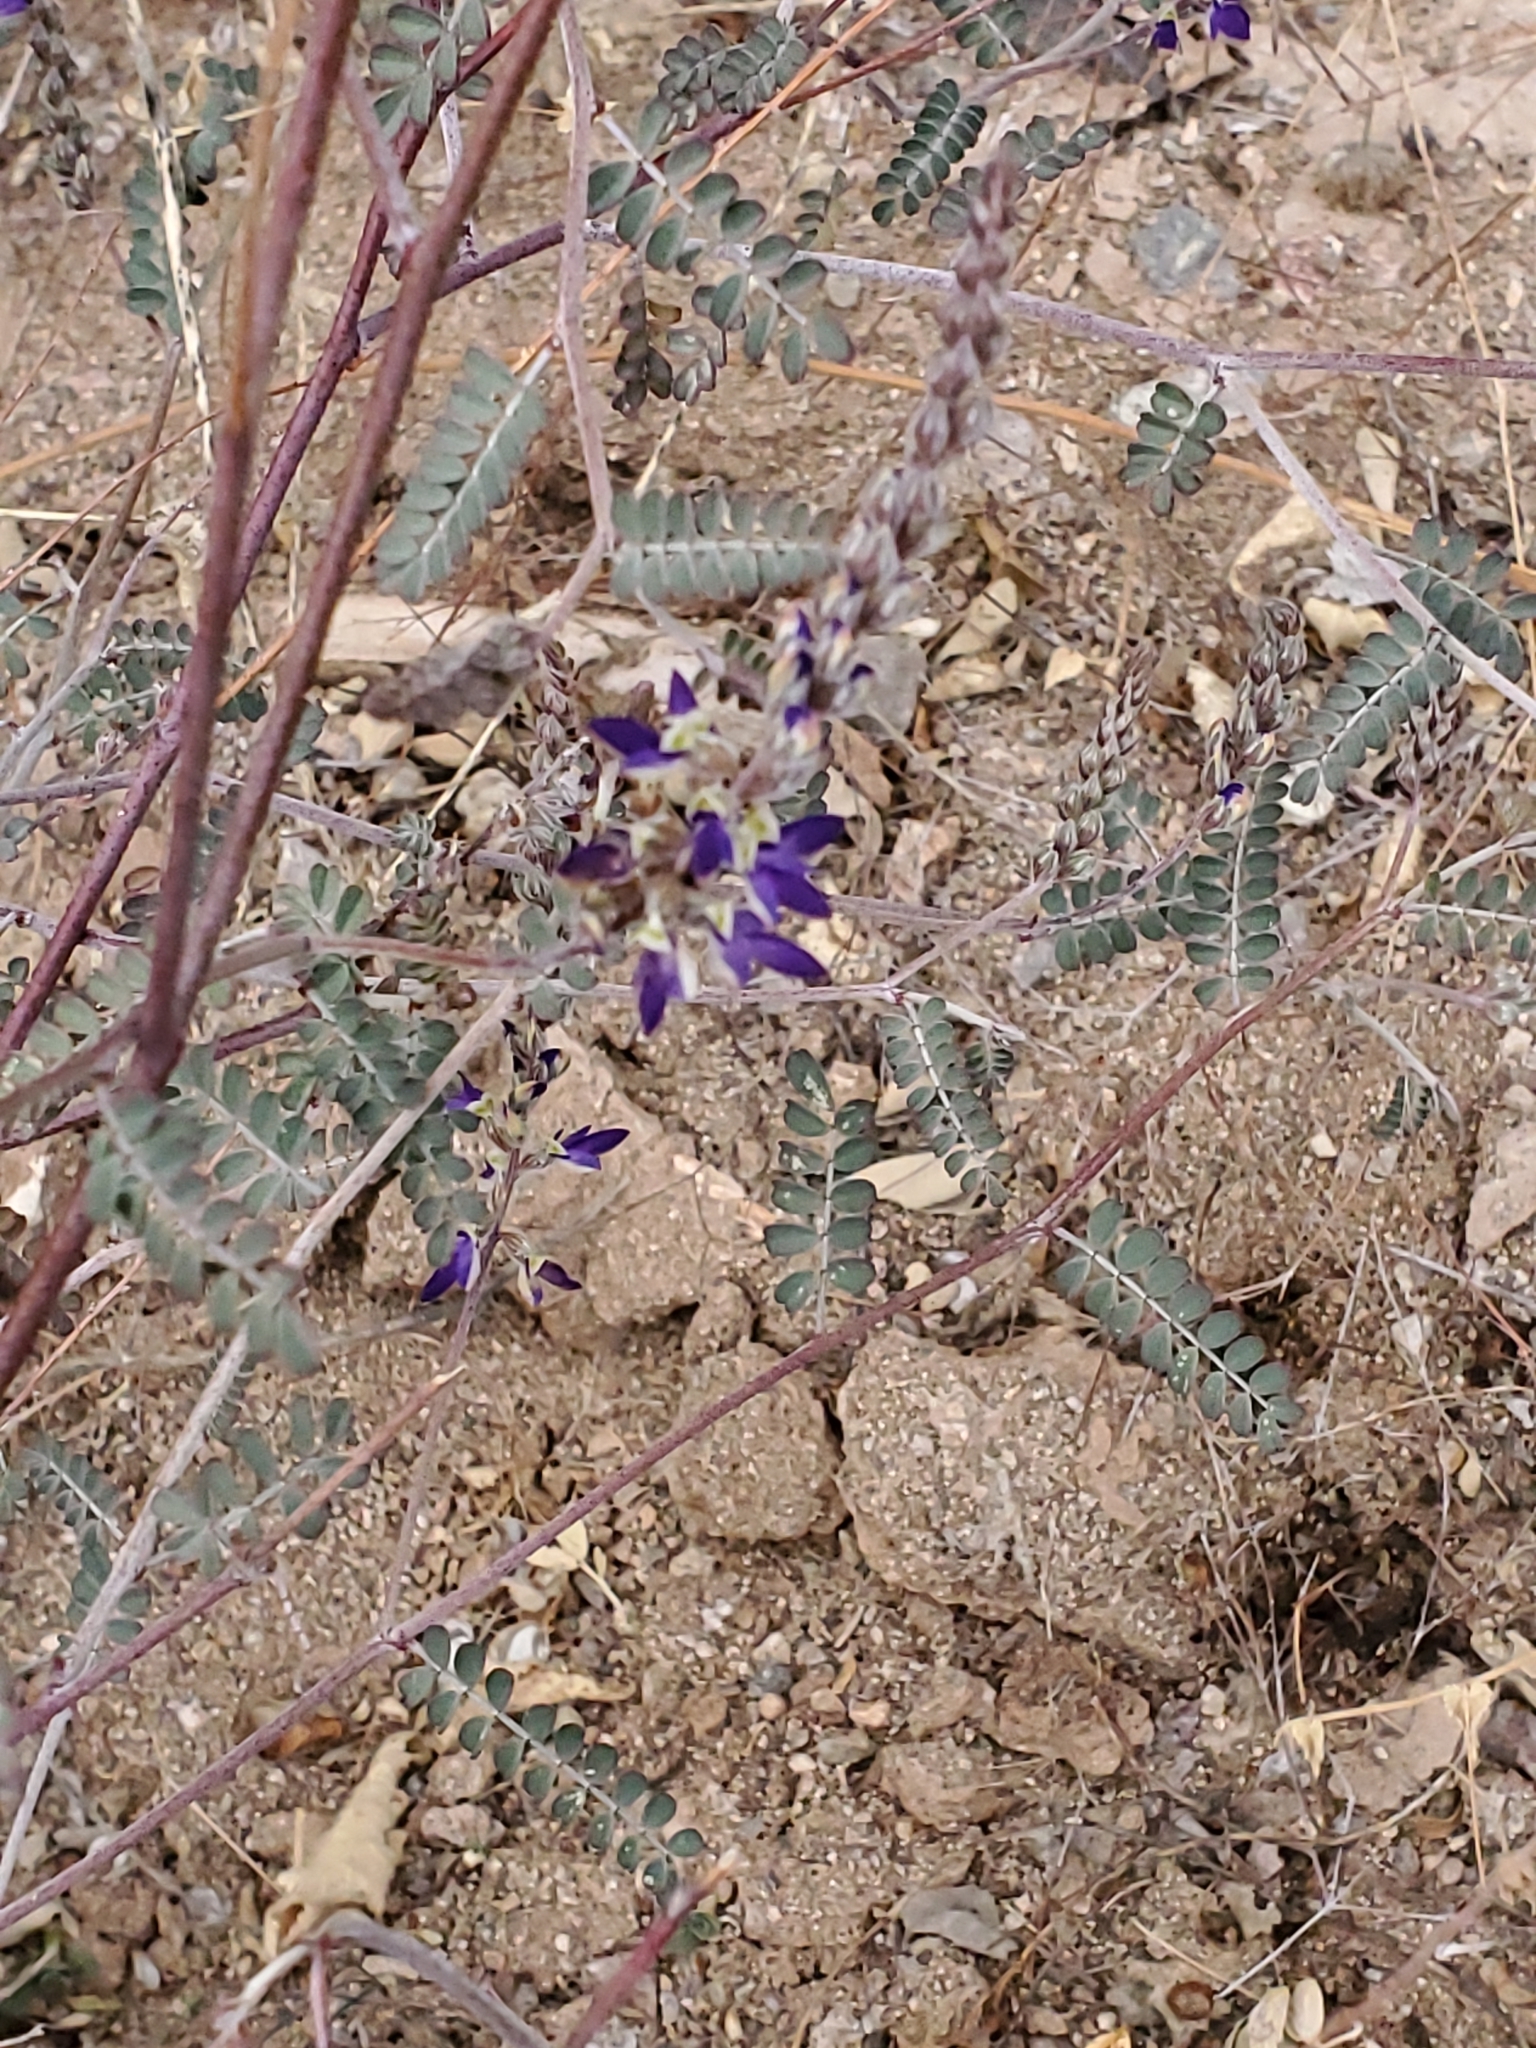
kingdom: Plantae
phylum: Tracheophyta
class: Magnoliopsida
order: Fabales
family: Fabaceae
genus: Marina
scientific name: Marina parryi
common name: Parry's marina
